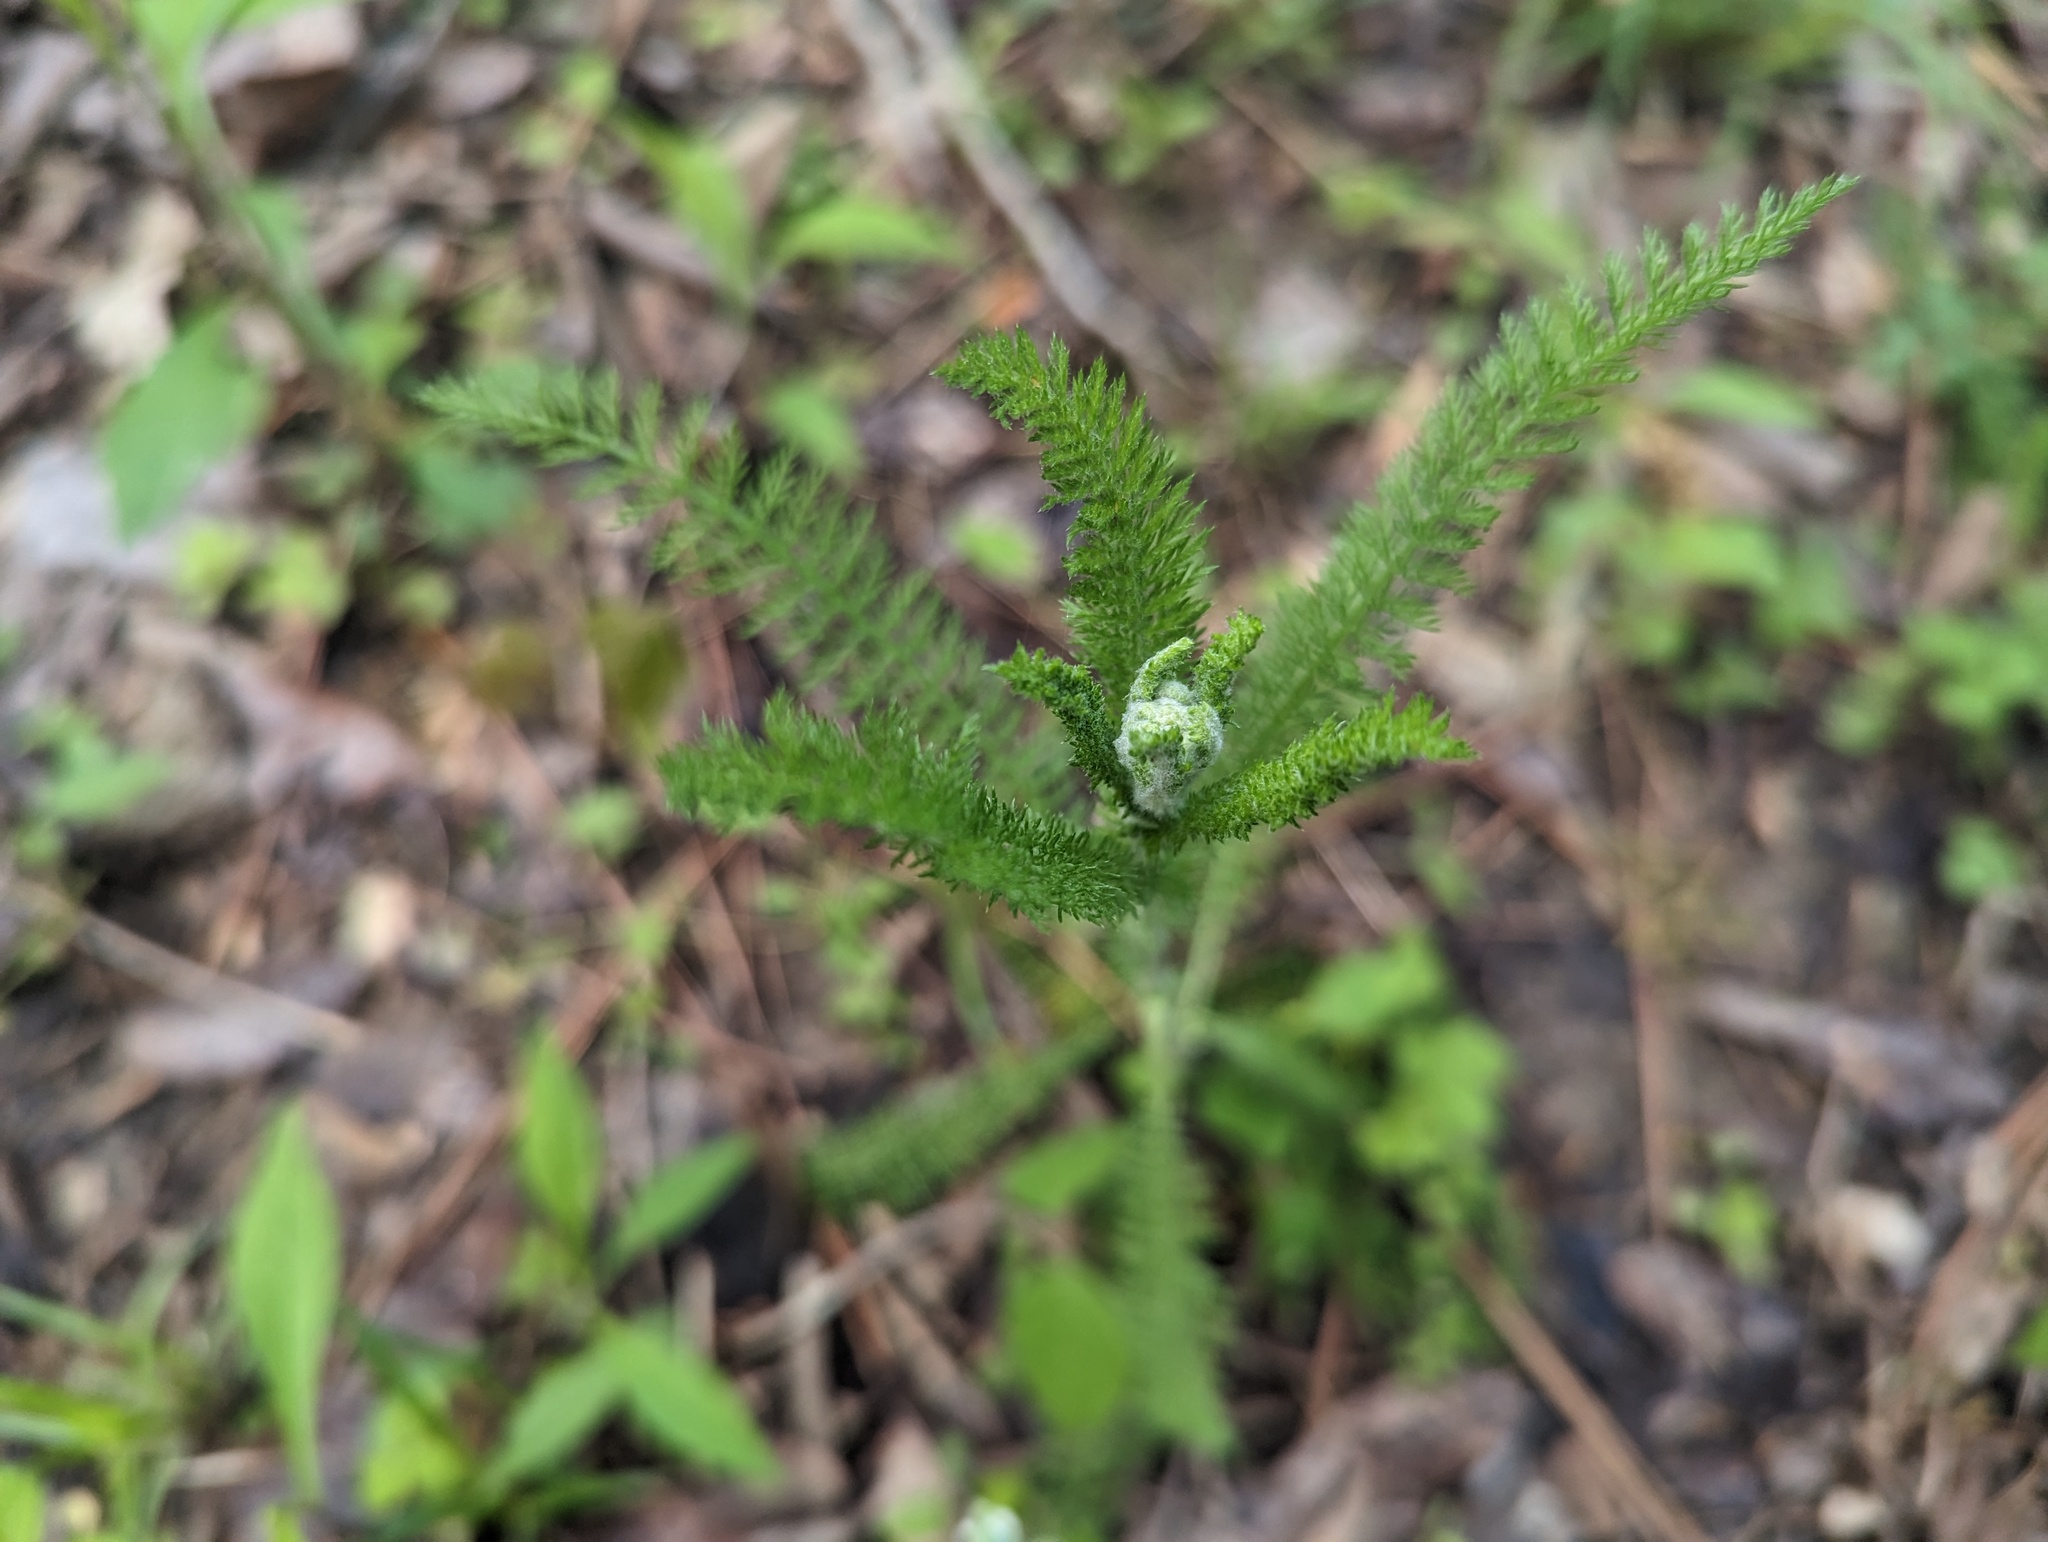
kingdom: Plantae
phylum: Tracheophyta
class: Magnoliopsida
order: Asterales
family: Asteraceae
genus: Achillea
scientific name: Achillea millefolium
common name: Yarrow
